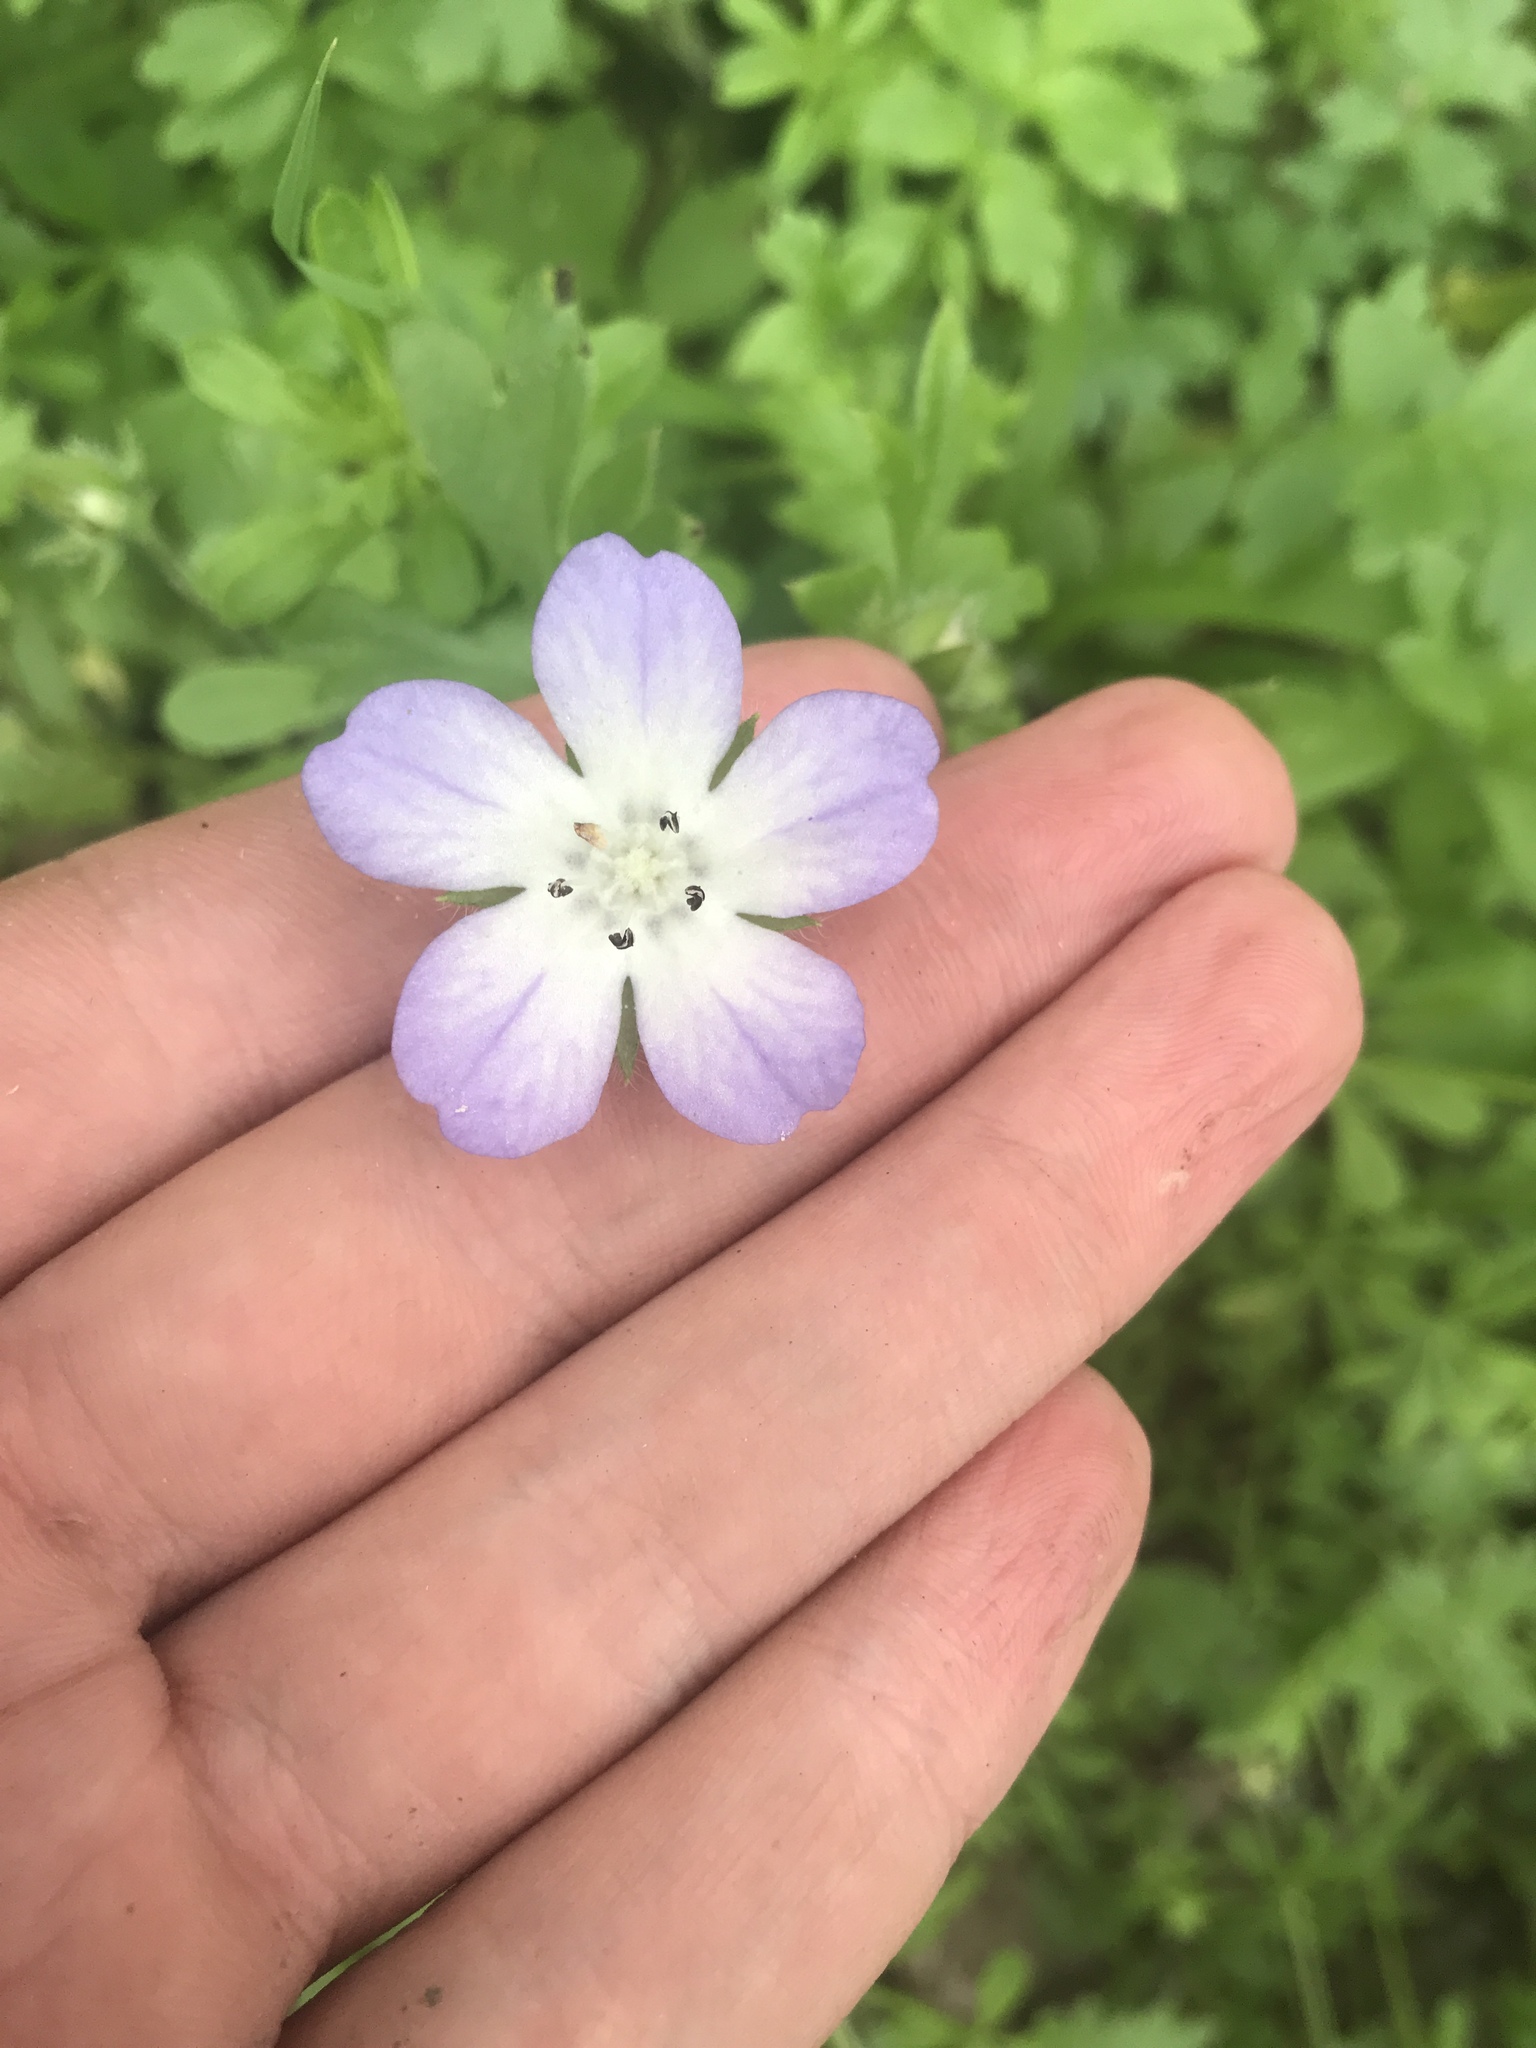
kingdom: Plantae
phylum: Tracheophyta
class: Magnoliopsida
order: Boraginales
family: Hydrophyllaceae
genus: Nemophila
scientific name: Nemophila phacelioides
